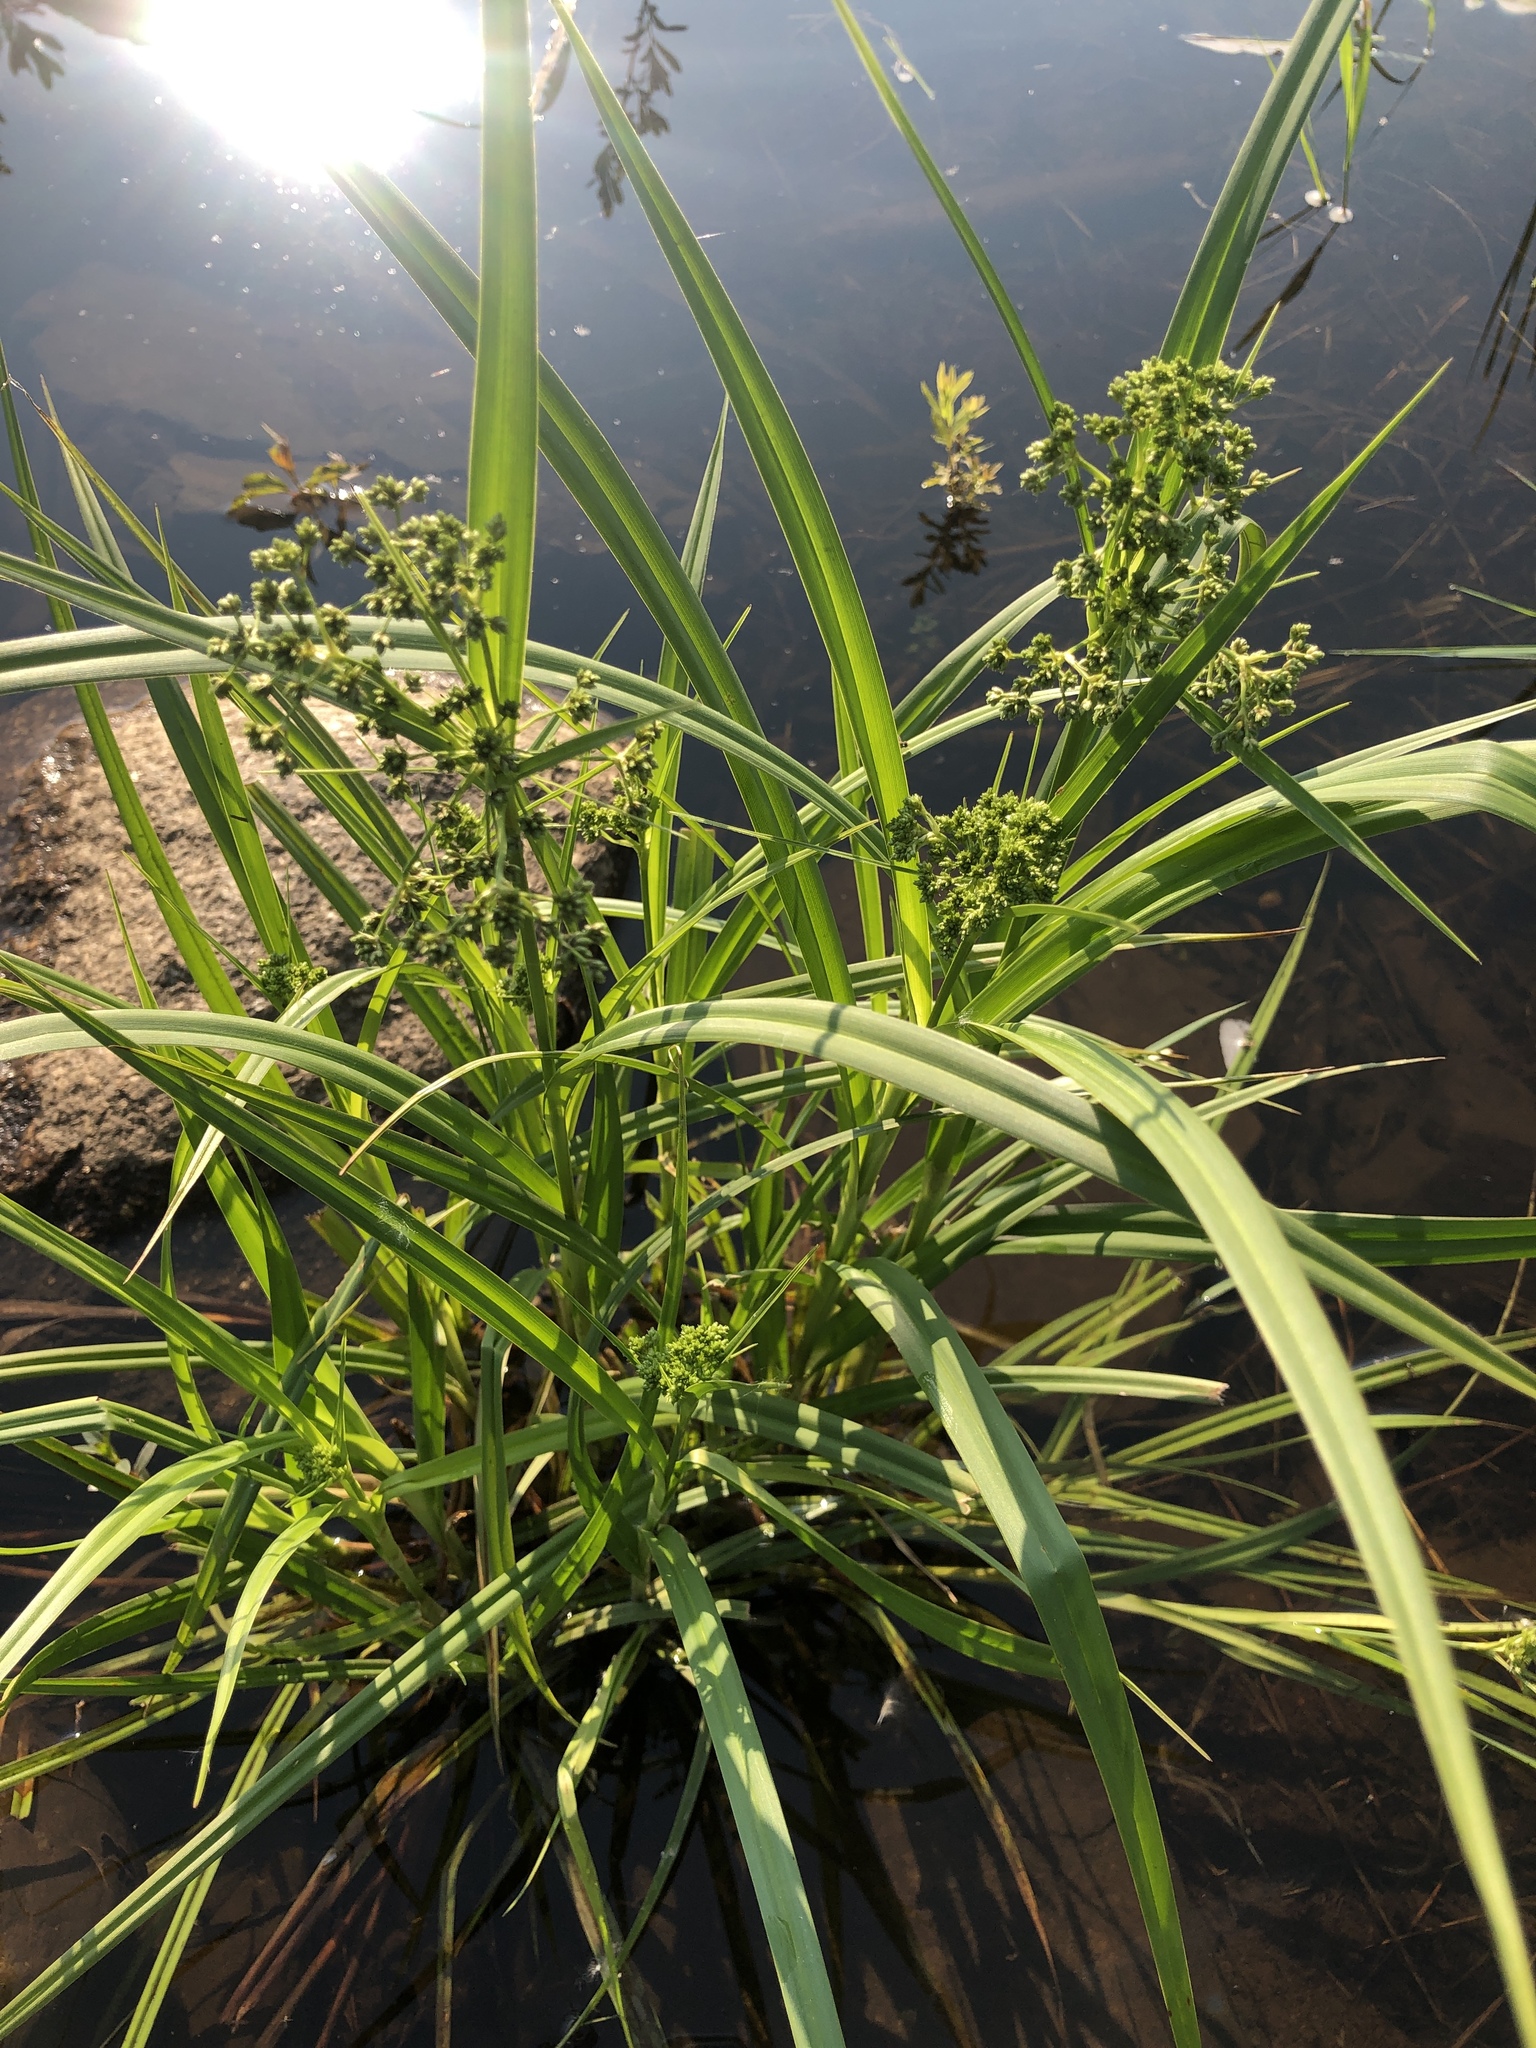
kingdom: Plantae
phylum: Tracheophyta
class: Liliopsida
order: Poales
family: Cyperaceae
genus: Scirpus
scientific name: Scirpus microcarpus
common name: Panicled bulrush
